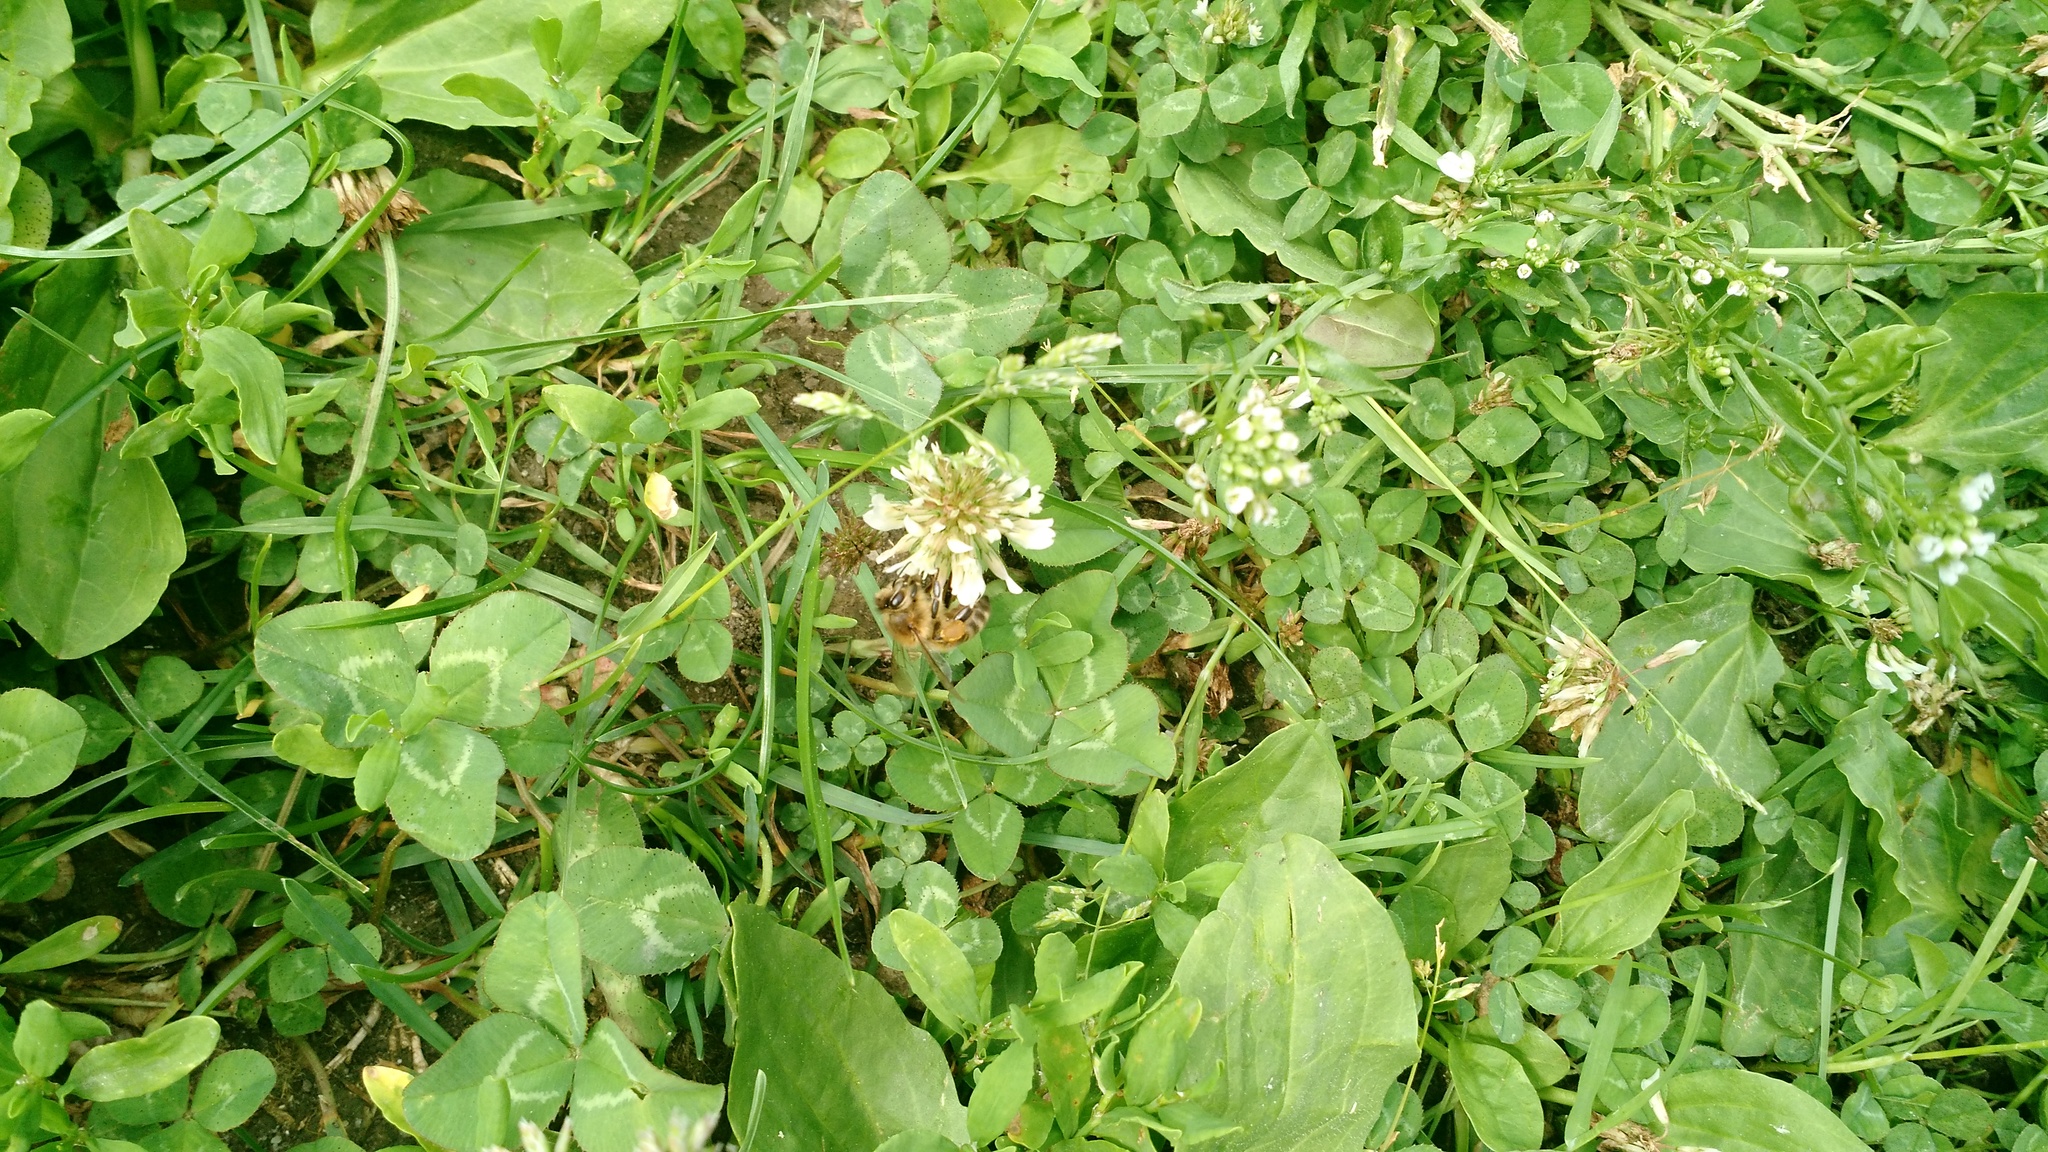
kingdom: Plantae
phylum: Tracheophyta
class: Magnoliopsida
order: Fabales
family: Fabaceae
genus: Trifolium
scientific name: Trifolium repens
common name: White clover
